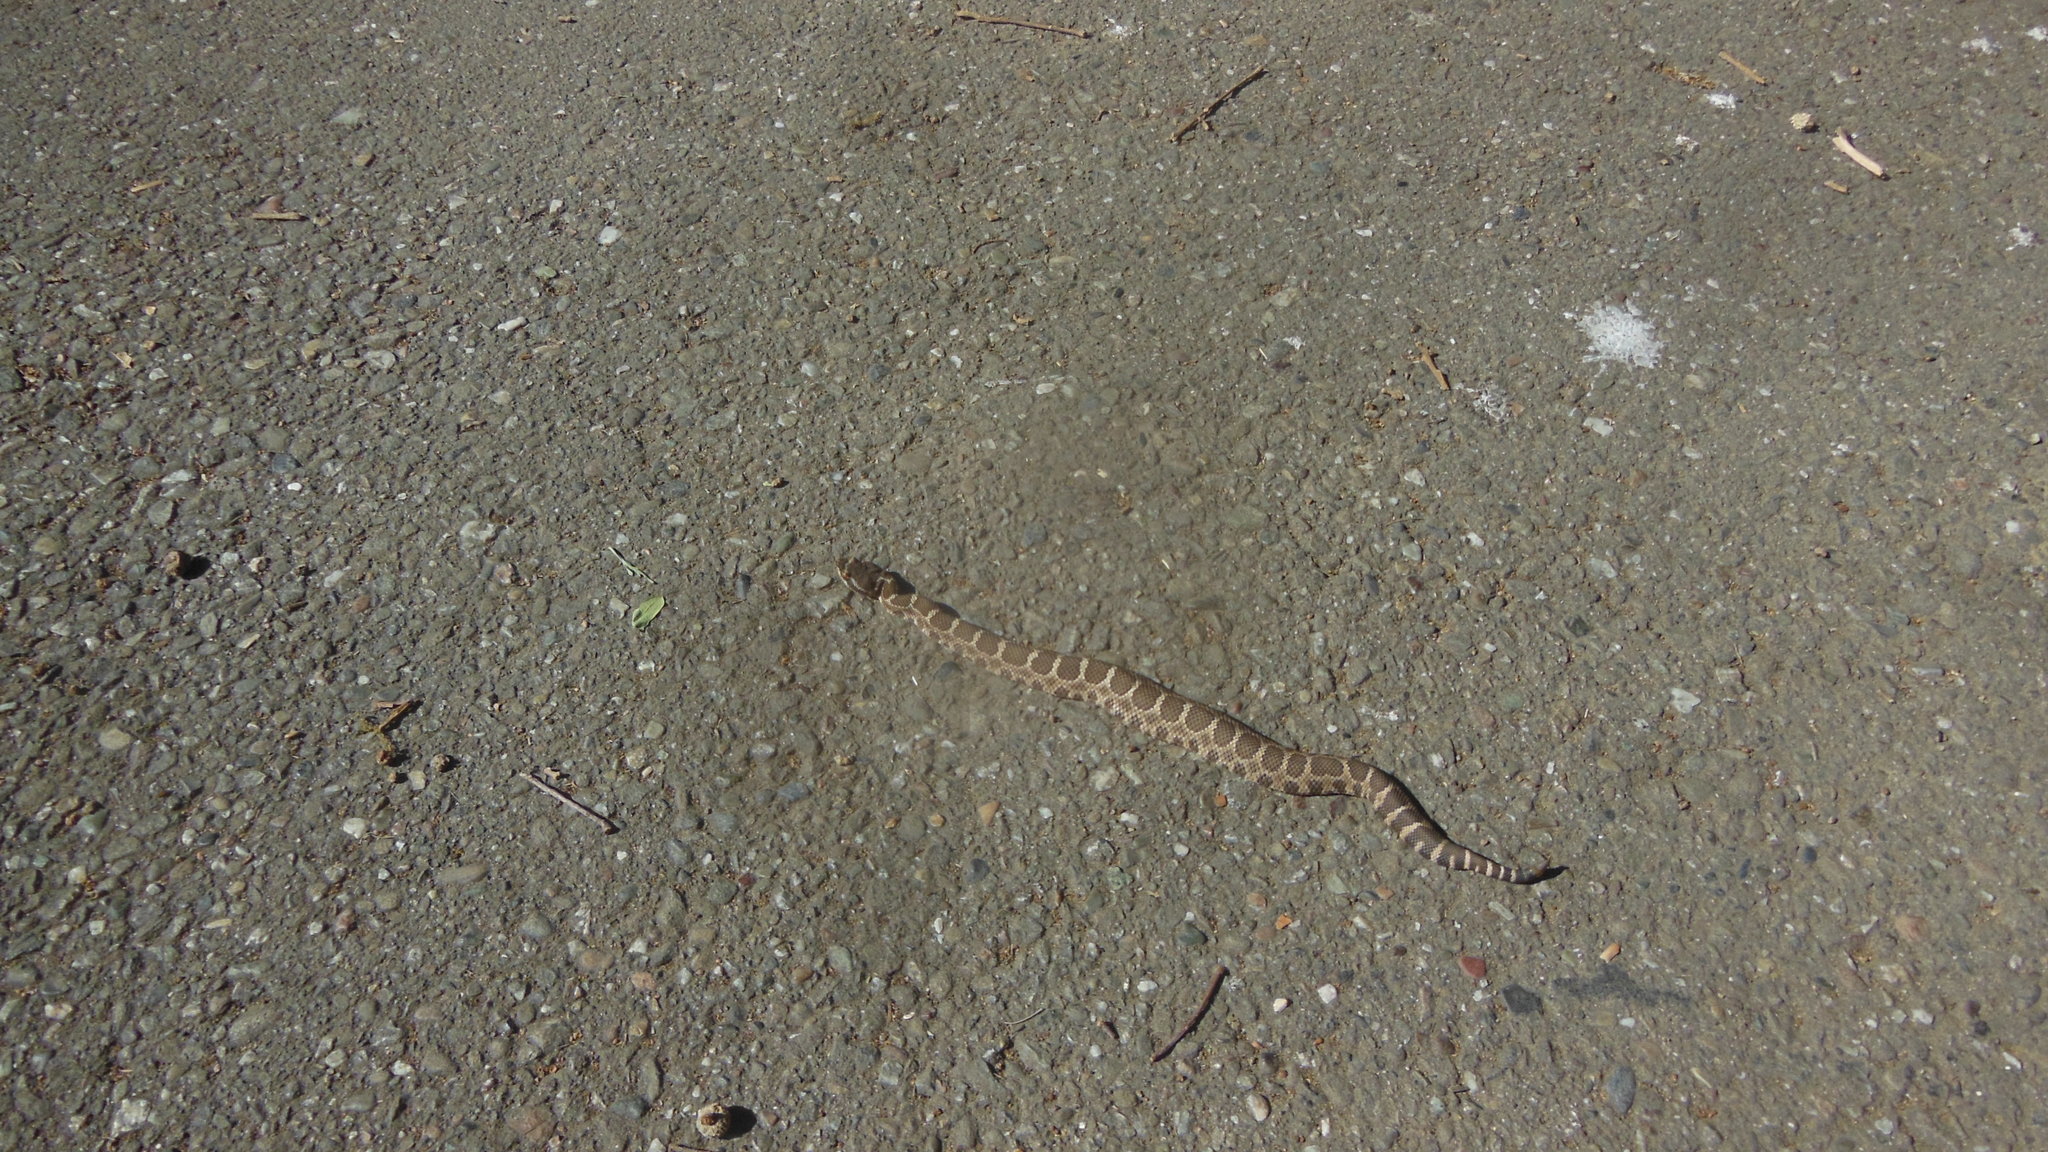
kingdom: Animalia
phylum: Chordata
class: Squamata
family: Viperidae
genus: Crotalus
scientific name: Crotalus oreganus
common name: Abyssus
